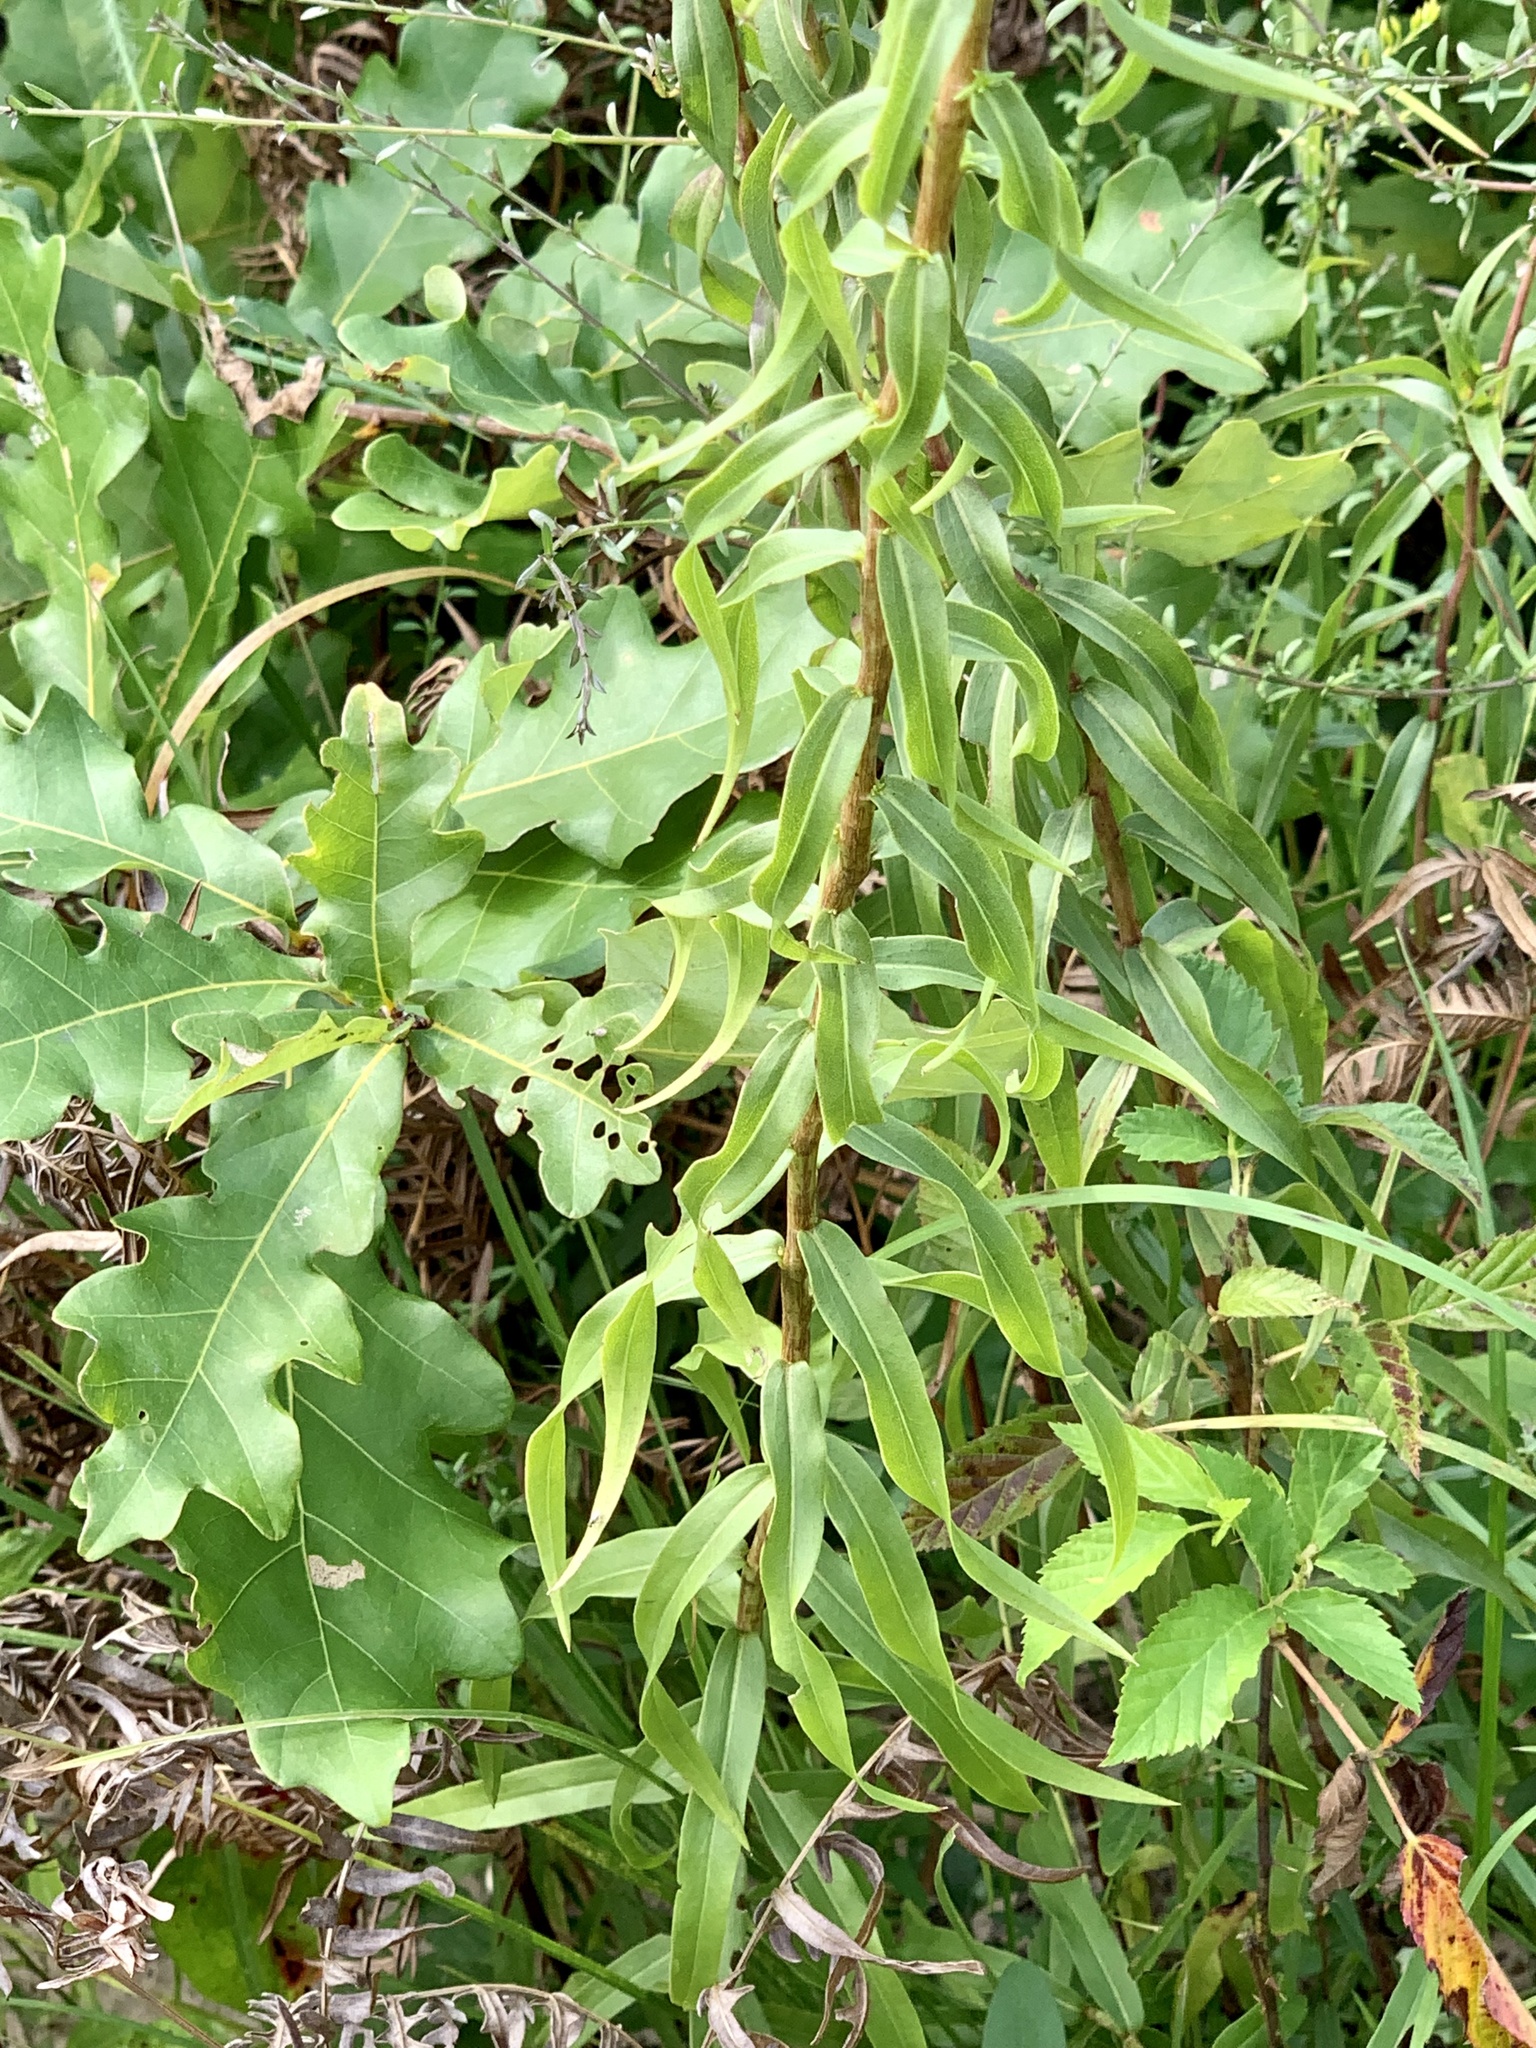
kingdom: Plantae
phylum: Tracheophyta
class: Magnoliopsida
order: Asterales
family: Asteraceae
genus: Solidago
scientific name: Solidago odora
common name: Anise-scented goldenrod
